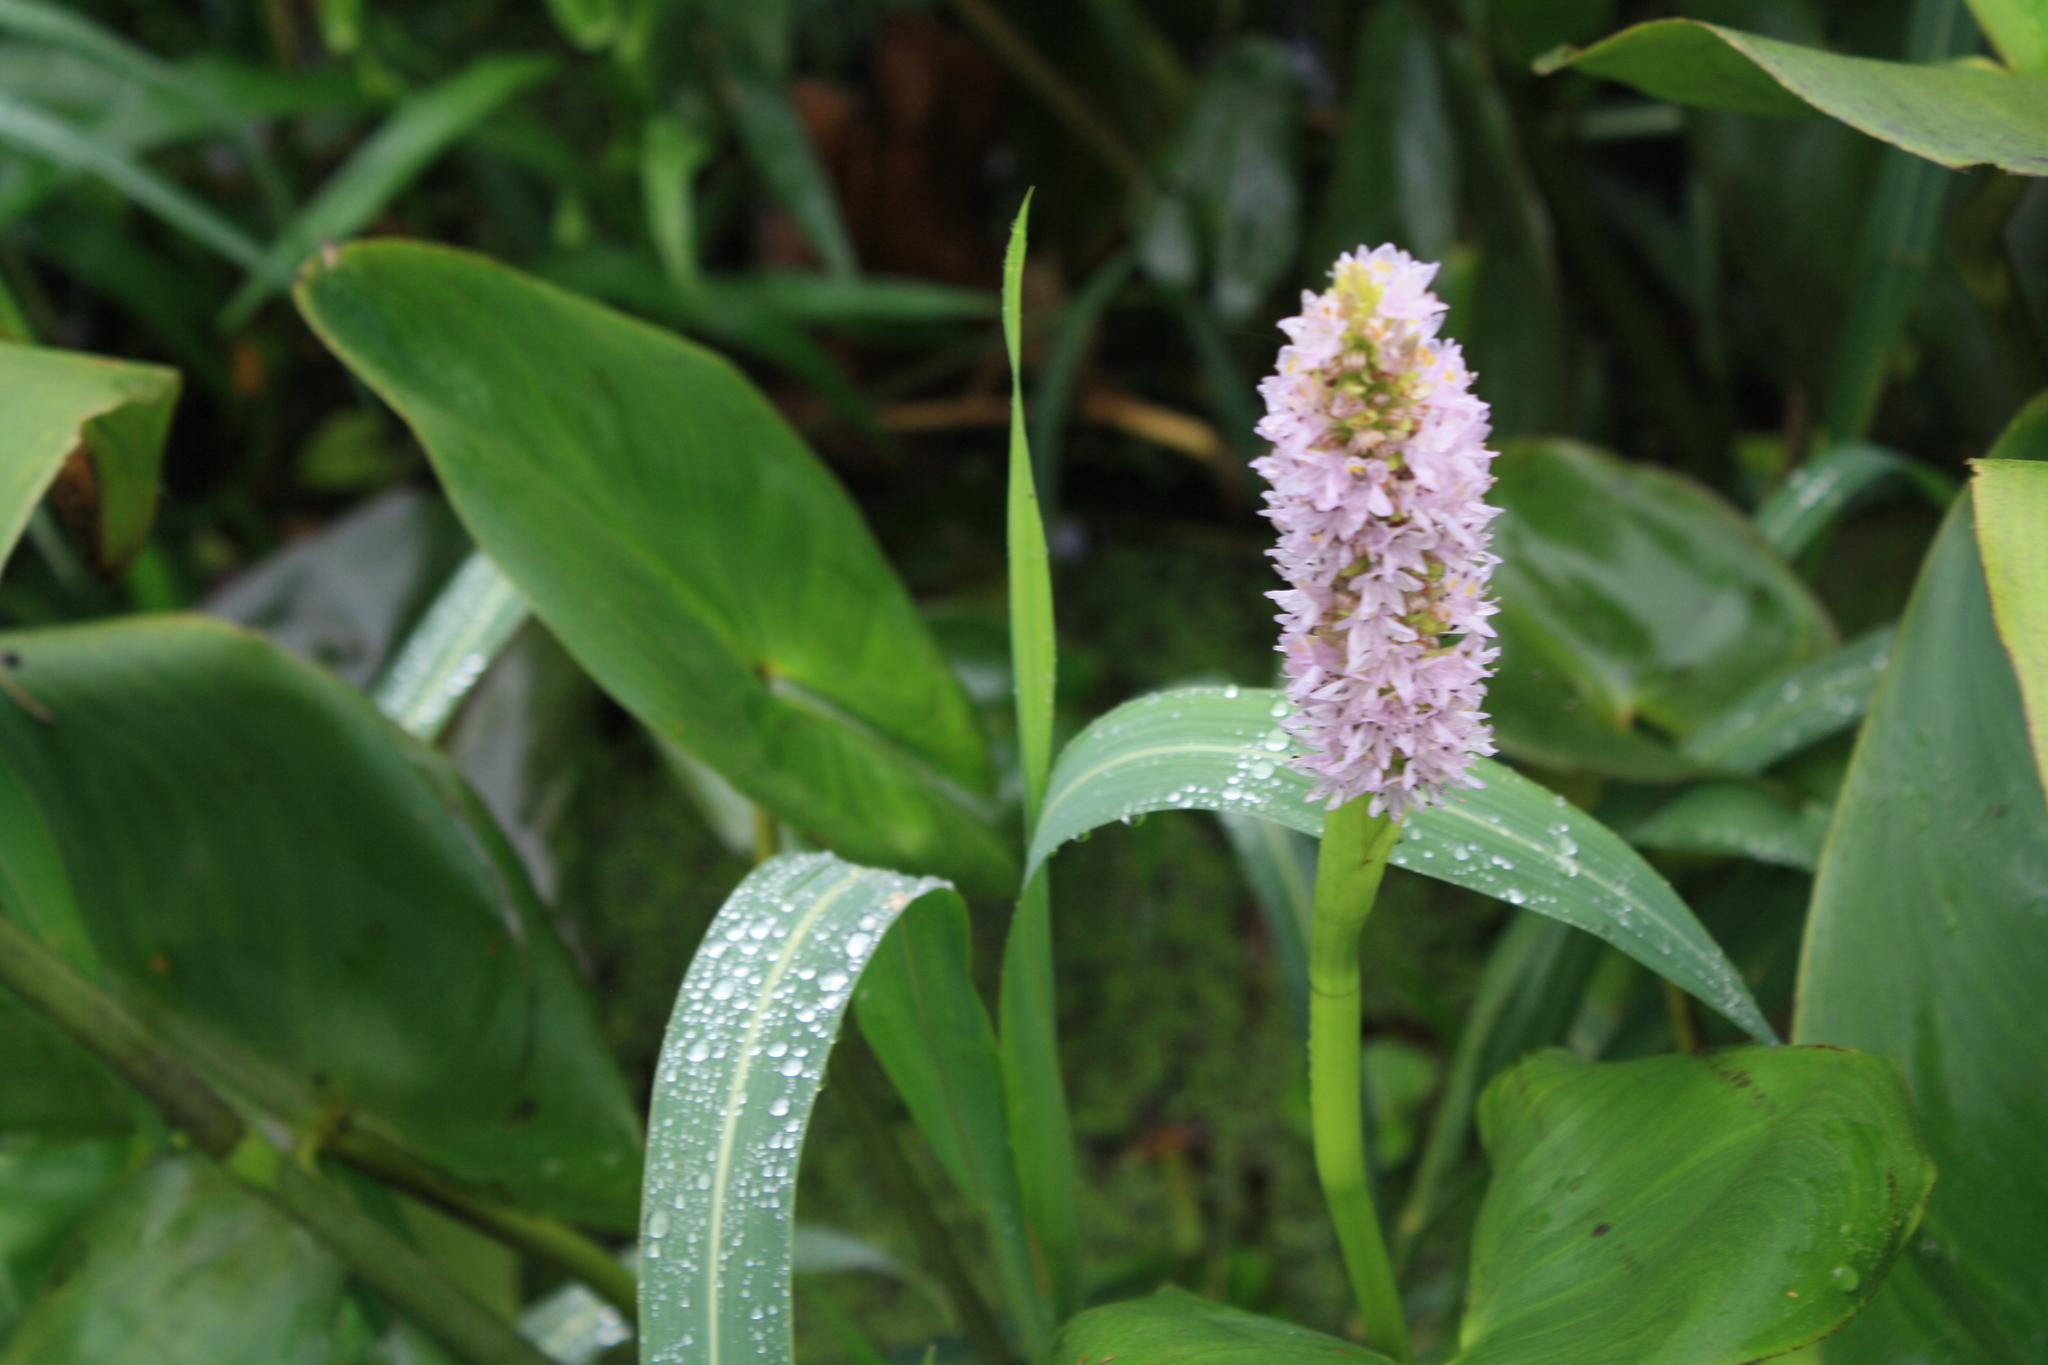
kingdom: Plantae
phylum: Tracheophyta
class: Liliopsida
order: Commelinales
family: Pontederiaceae
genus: Pontederia
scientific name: Pontederia sagittata
